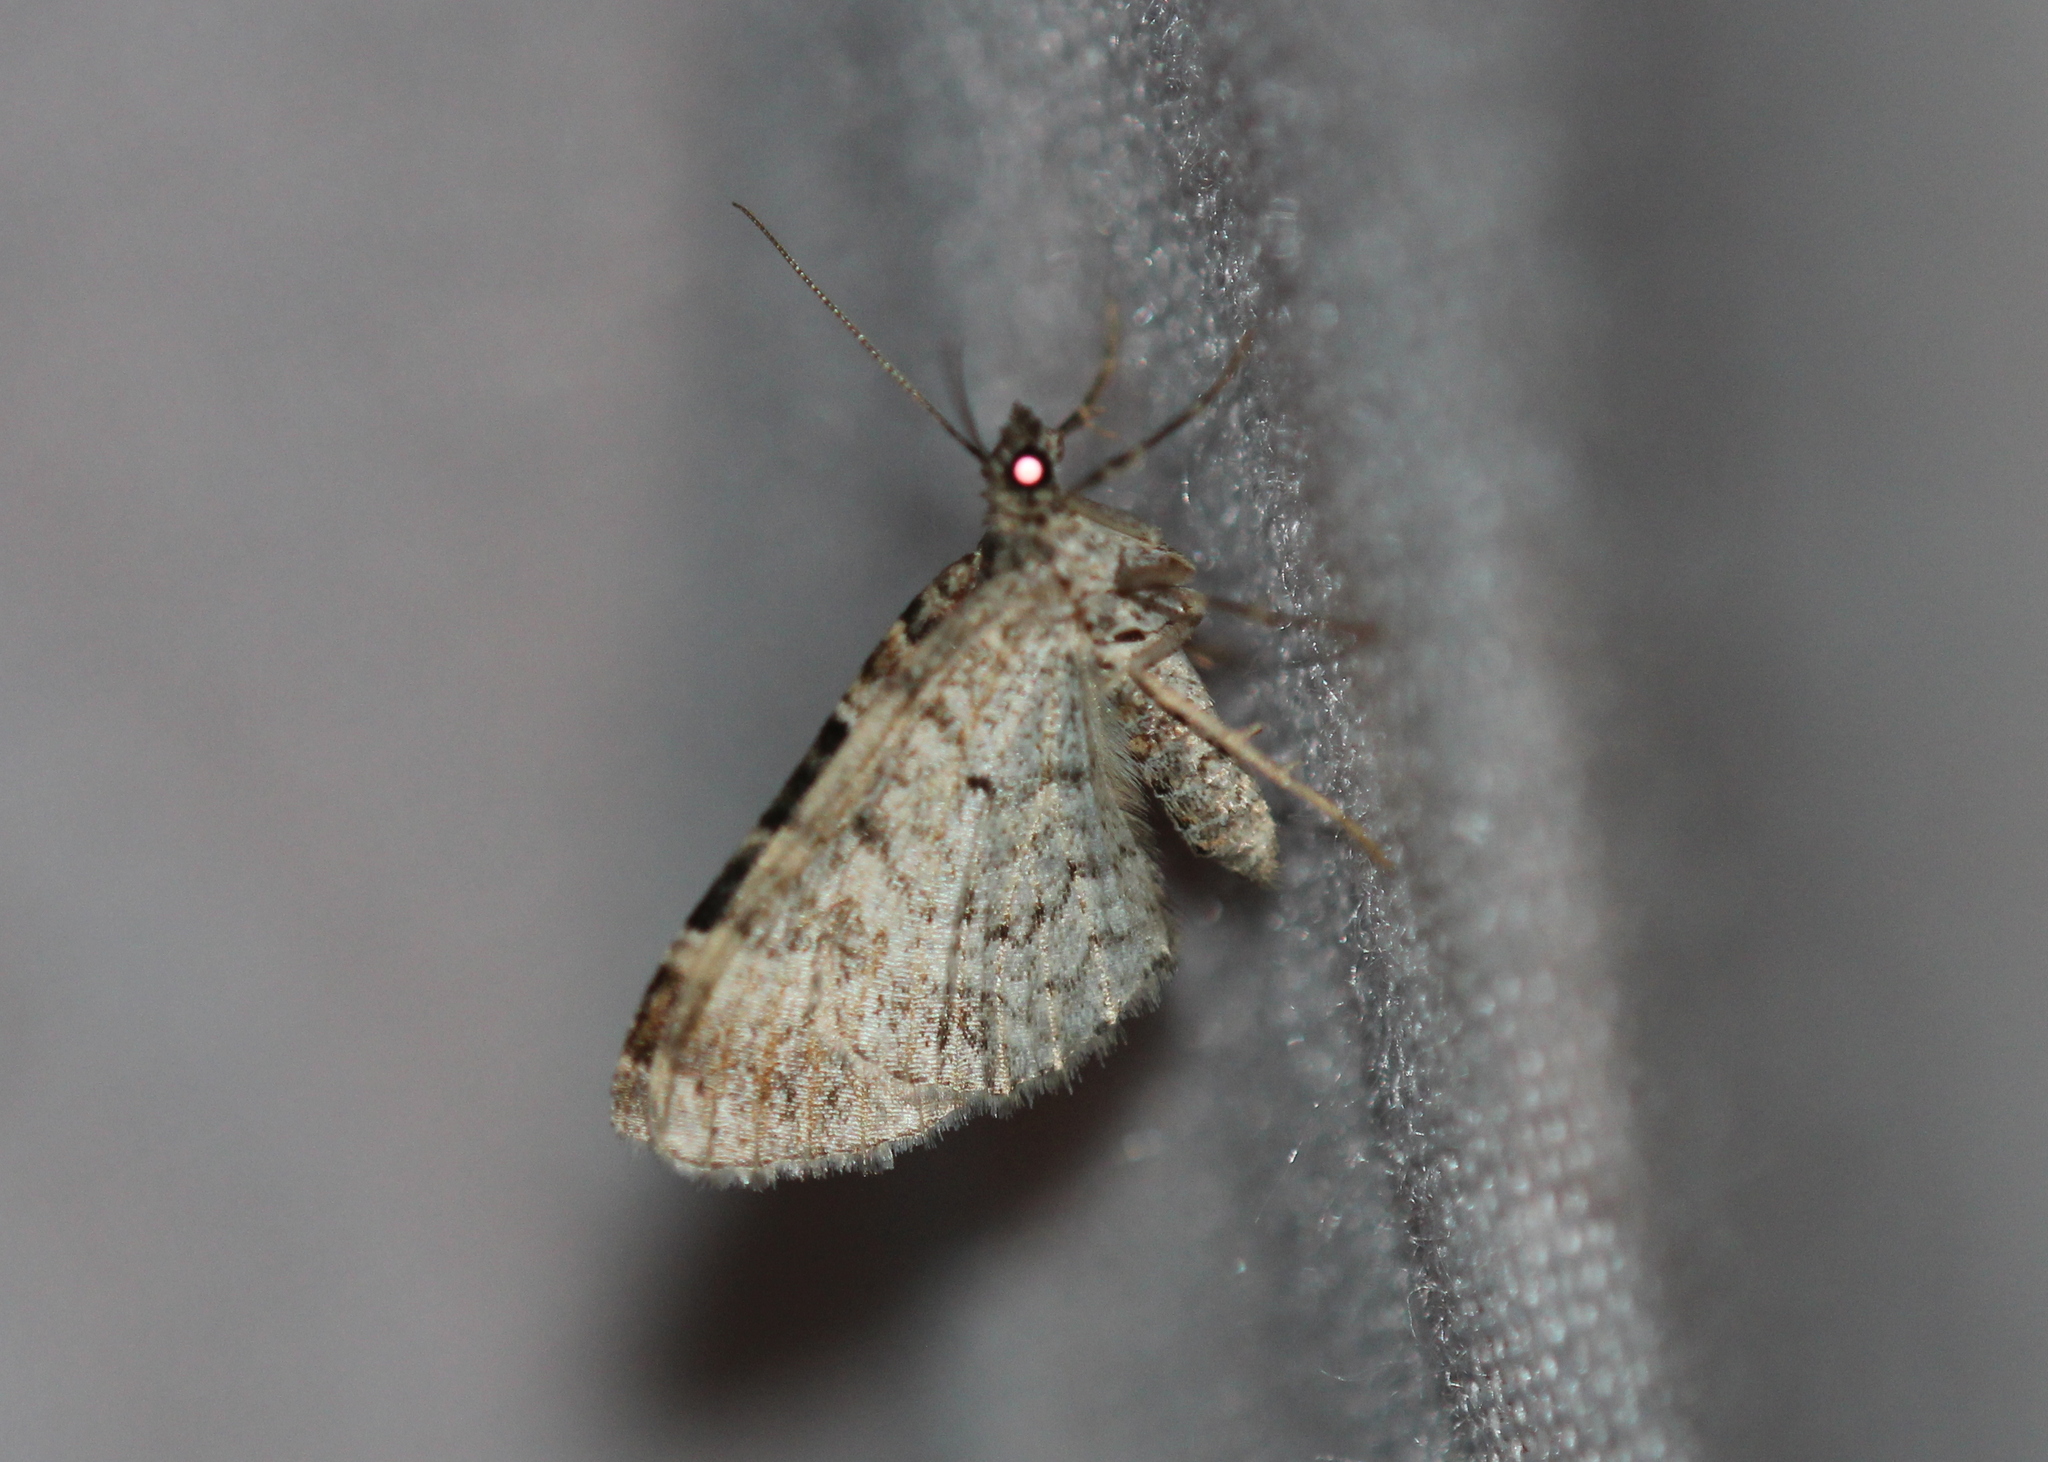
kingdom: Animalia
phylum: Arthropoda
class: Insecta
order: Lepidoptera
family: Geometridae
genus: Ecliptopera
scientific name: Ecliptopera silaceata
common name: Small phoenix
